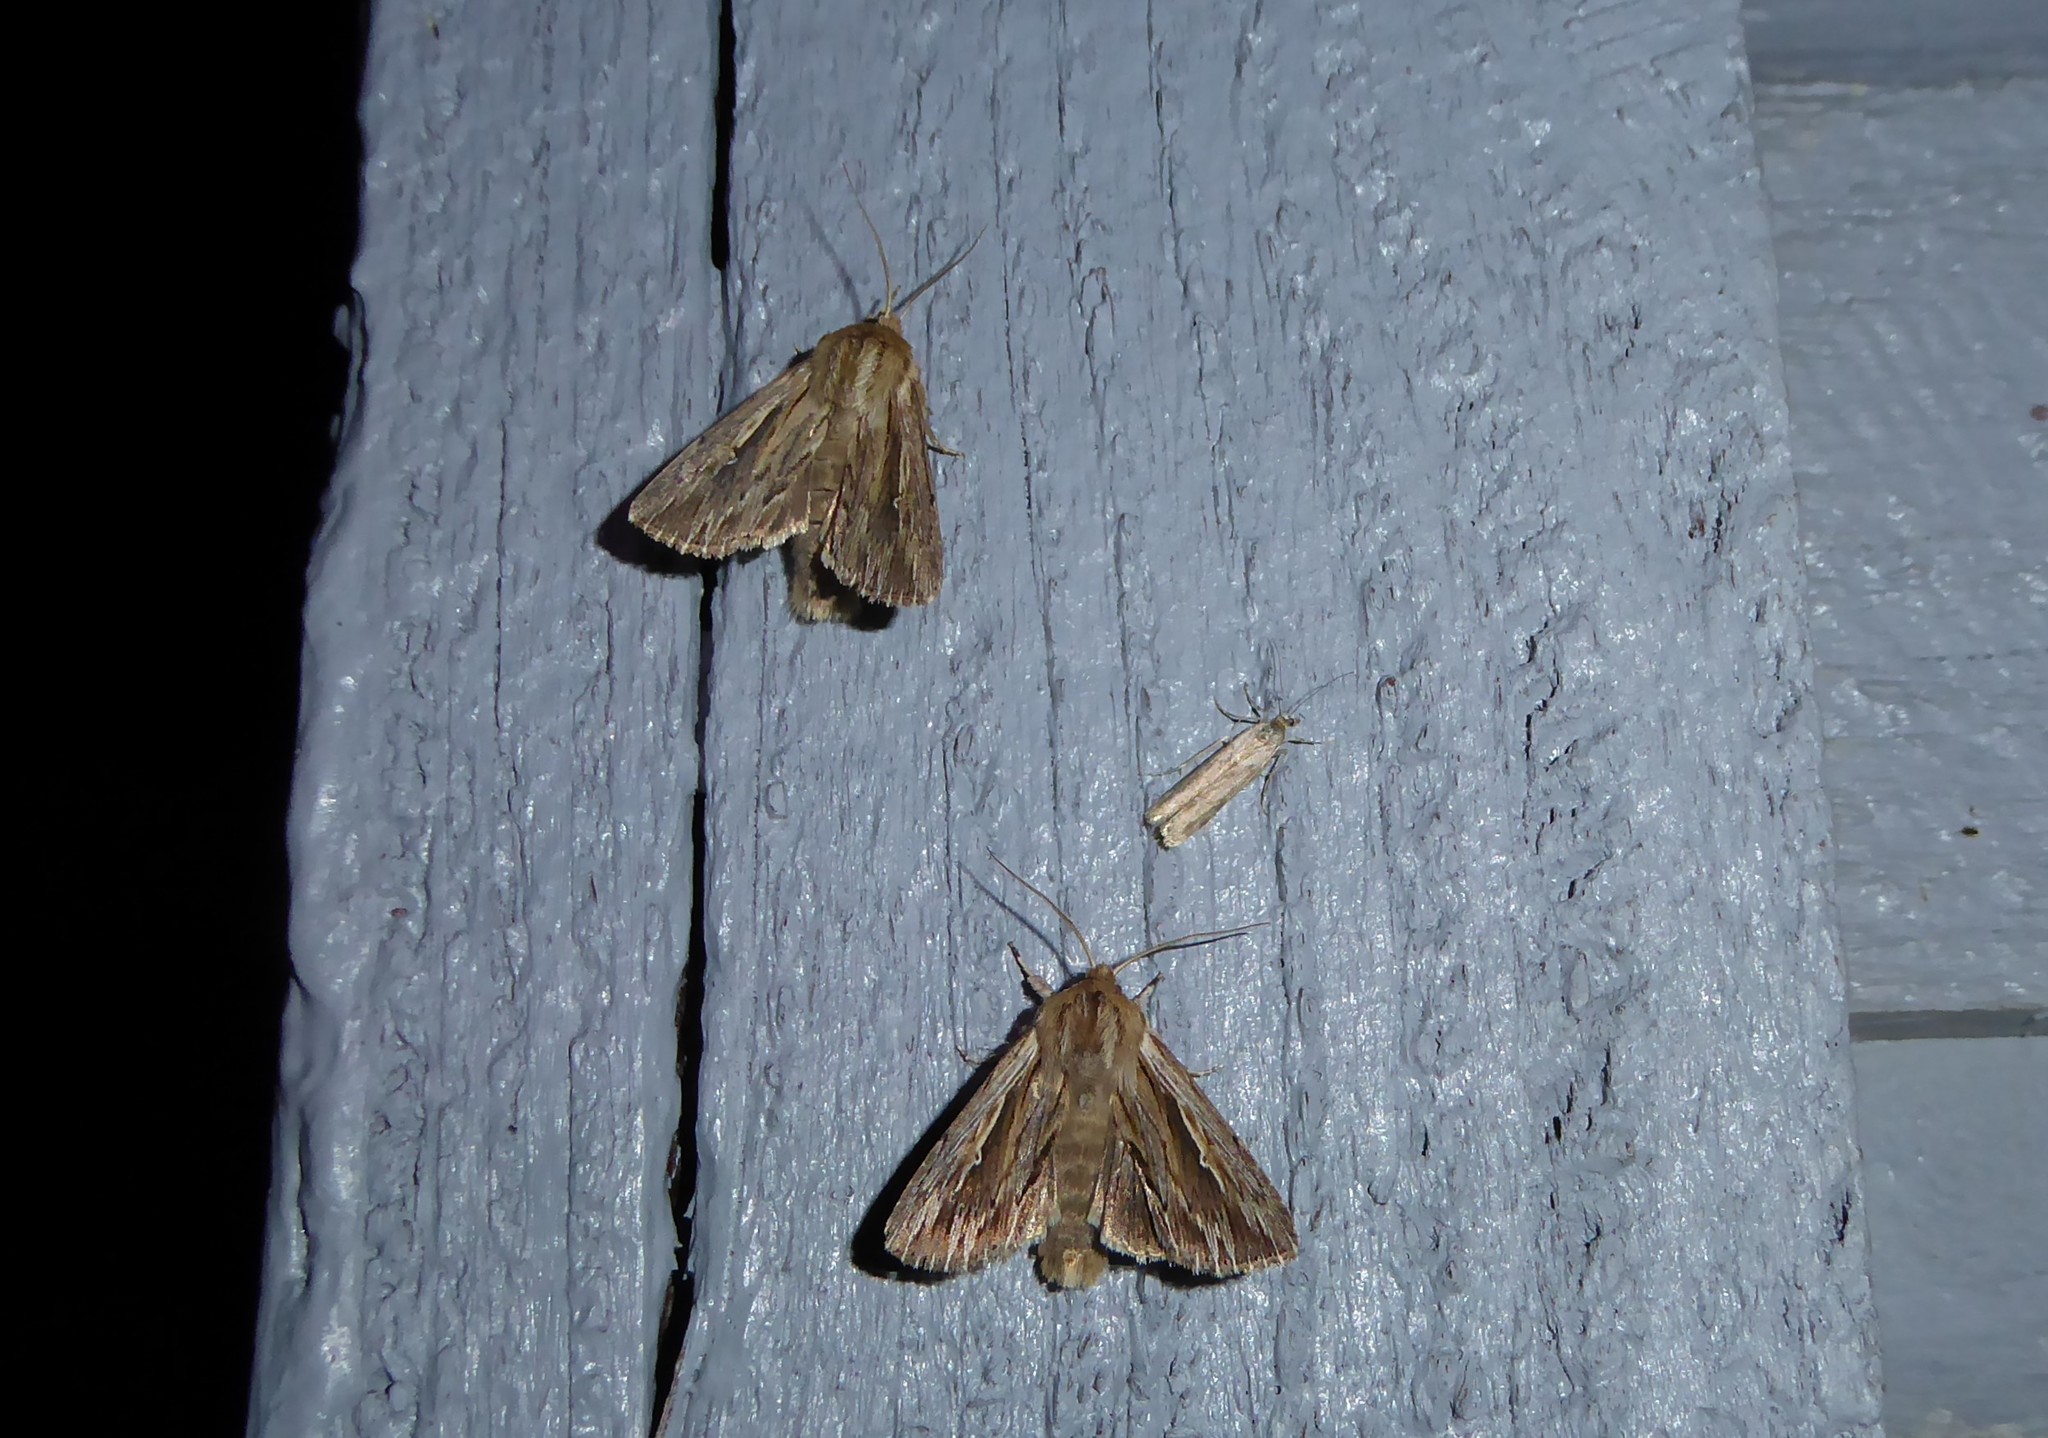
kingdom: Animalia
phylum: Arthropoda
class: Insecta
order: Lepidoptera
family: Noctuidae
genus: Persectania
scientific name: Persectania aversa
